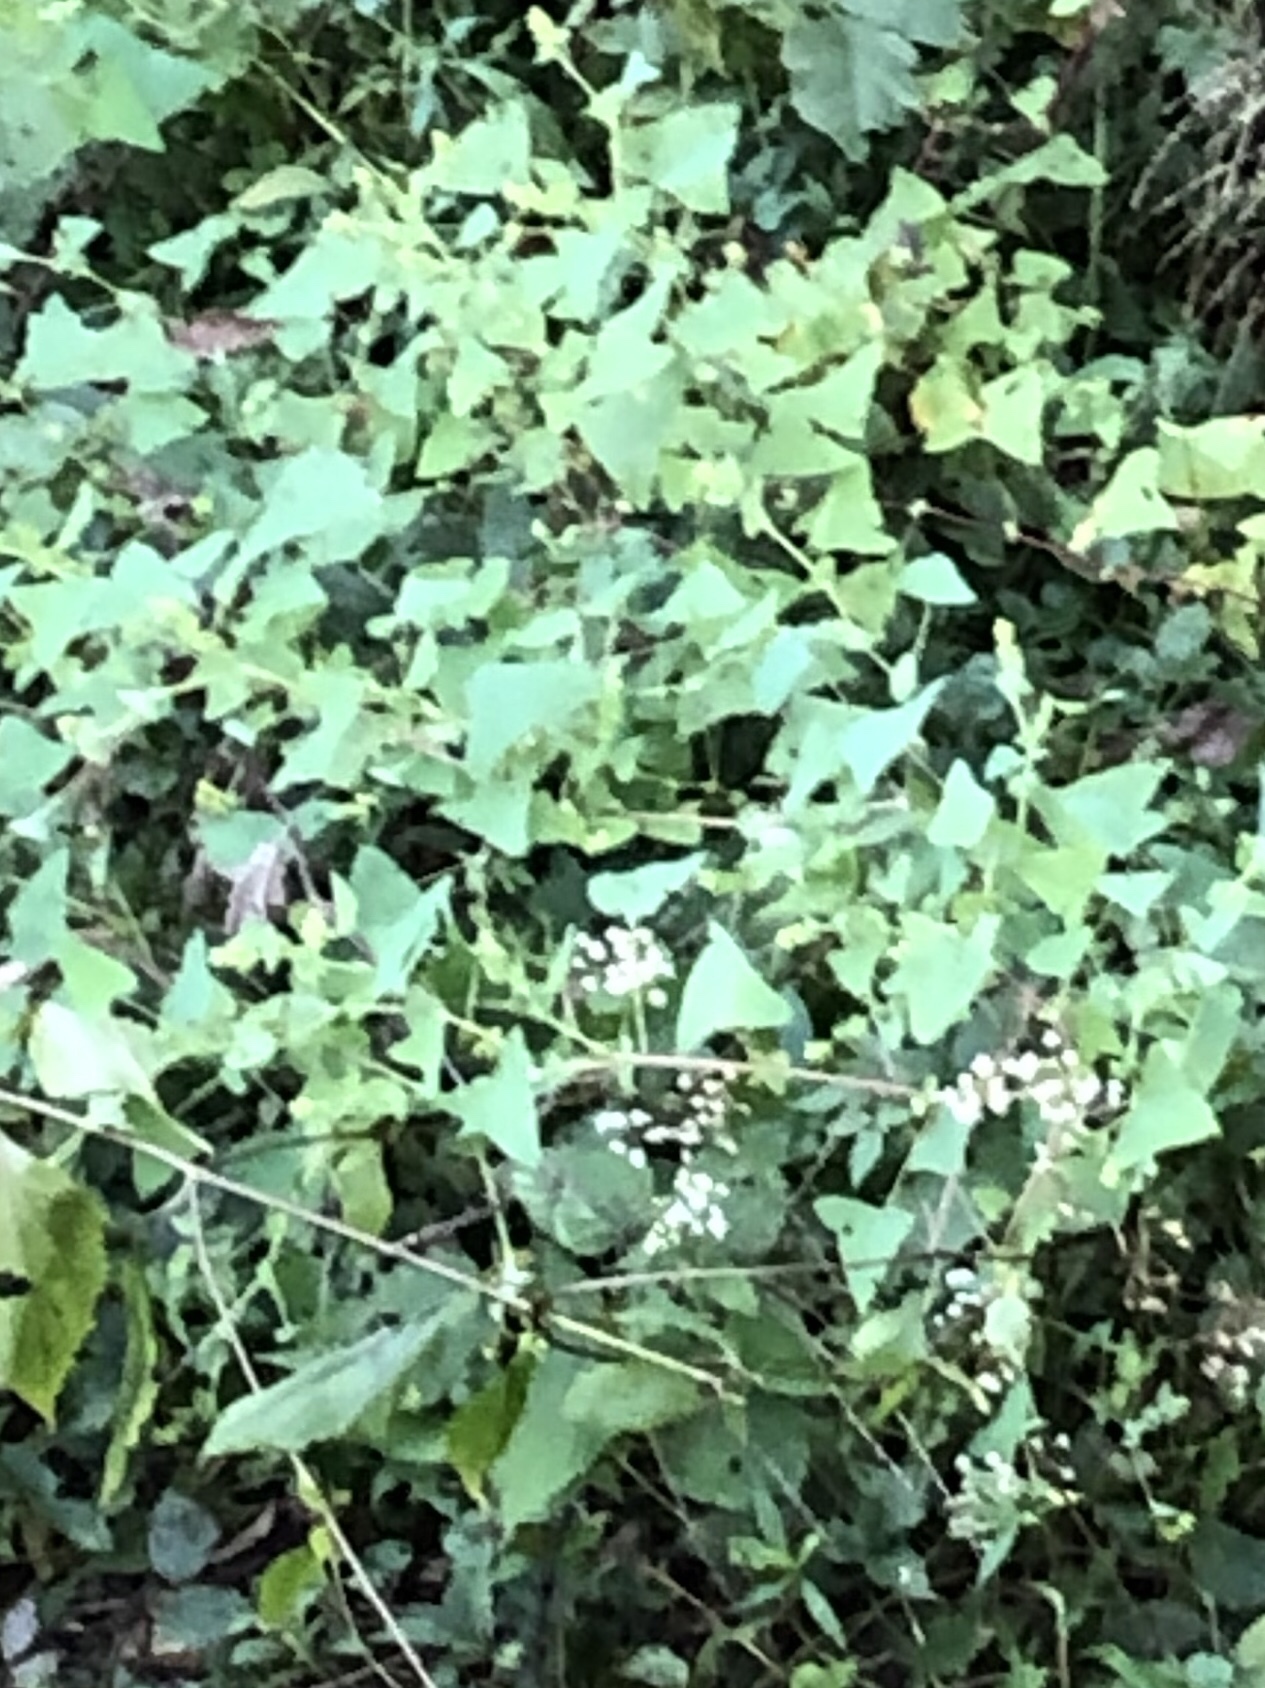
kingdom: Plantae
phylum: Tracheophyta
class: Magnoliopsida
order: Caryophyllales
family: Polygonaceae
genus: Persicaria
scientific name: Persicaria perfoliata
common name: Asiatic tearthumb
